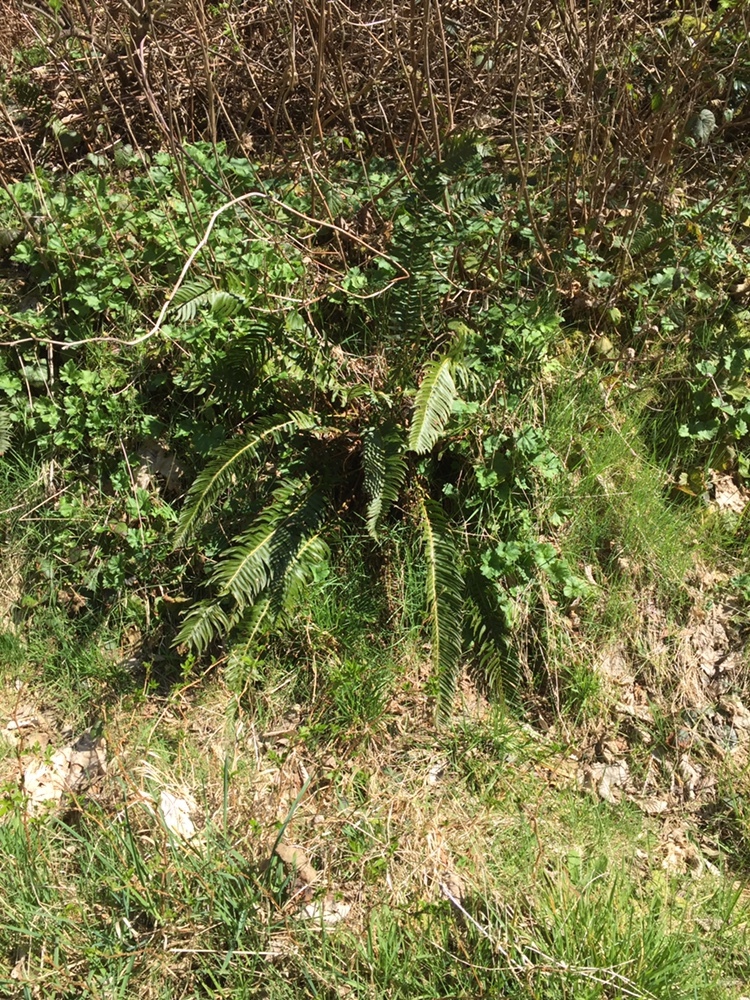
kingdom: Plantae
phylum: Tracheophyta
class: Polypodiopsida
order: Polypodiales
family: Dryopteridaceae
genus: Polystichum
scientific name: Polystichum munitum
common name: Western sword-fern
